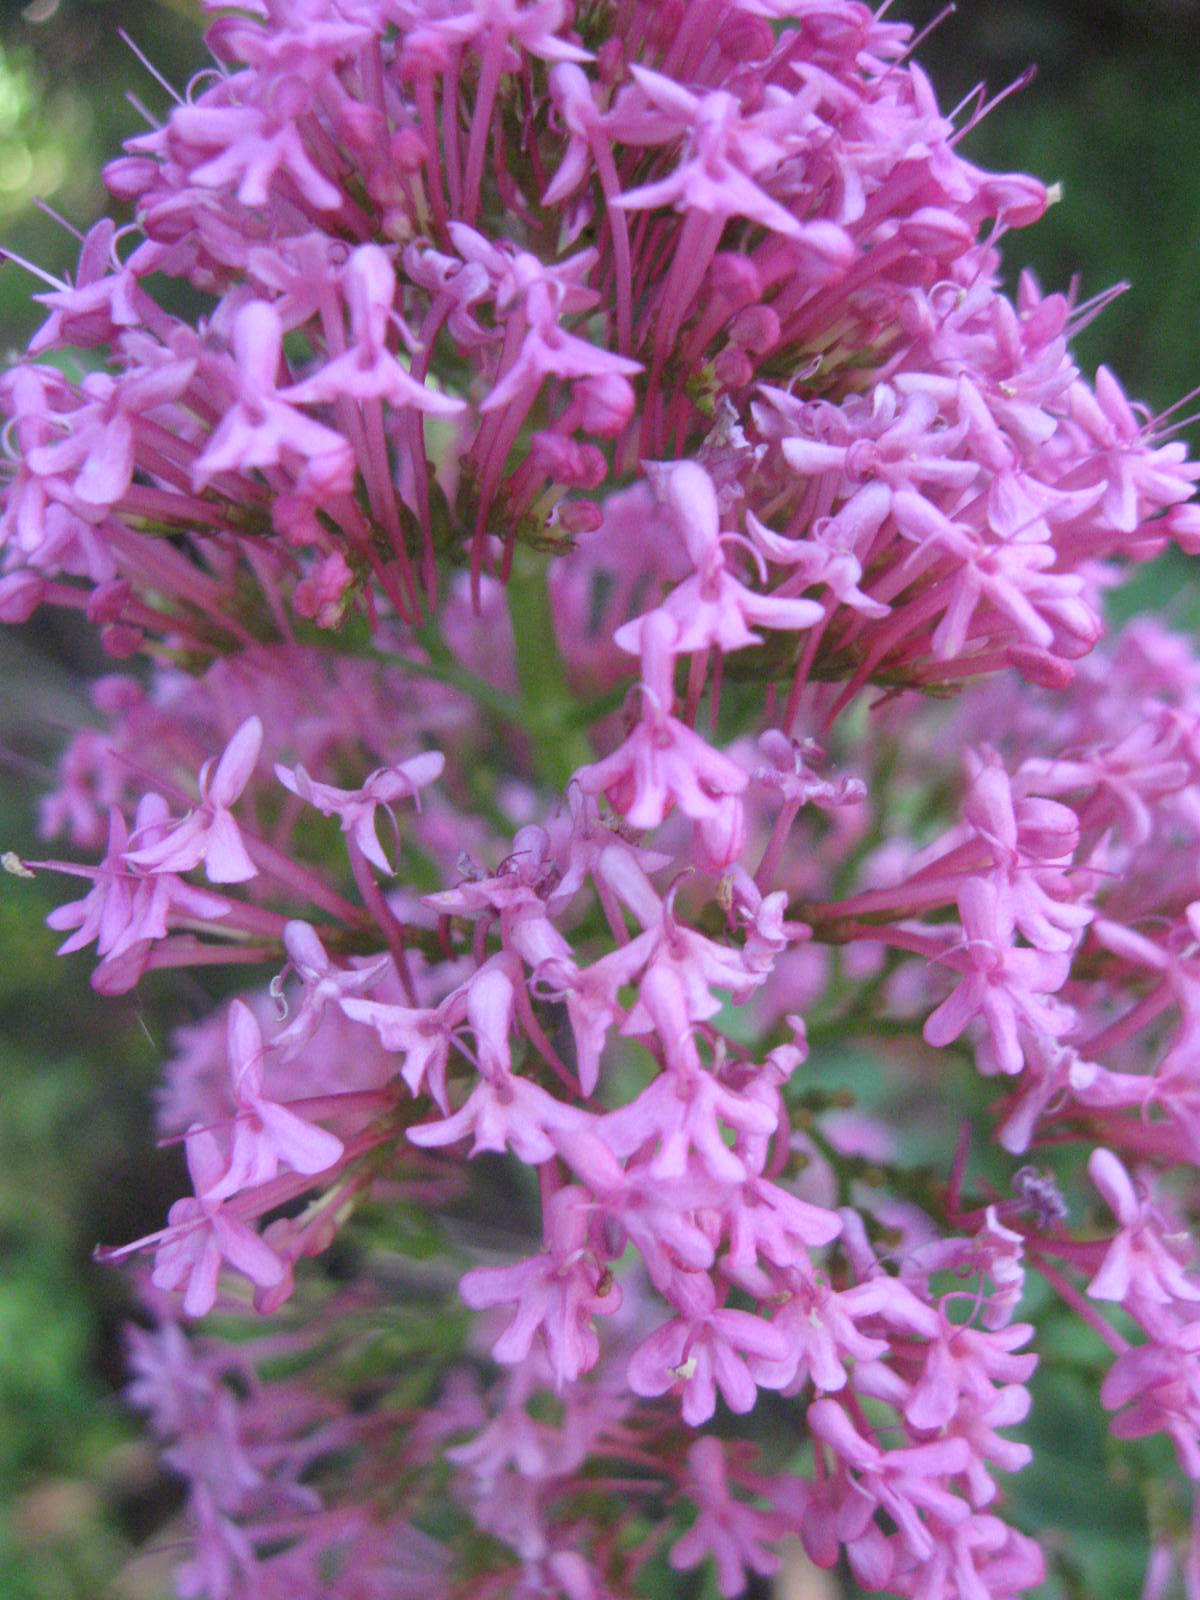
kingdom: Plantae
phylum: Tracheophyta
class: Magnoliopsida
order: Dipsacales
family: Caprifoliaceae
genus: Centranthus
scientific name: Centranthus ruber
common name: Red valerian
